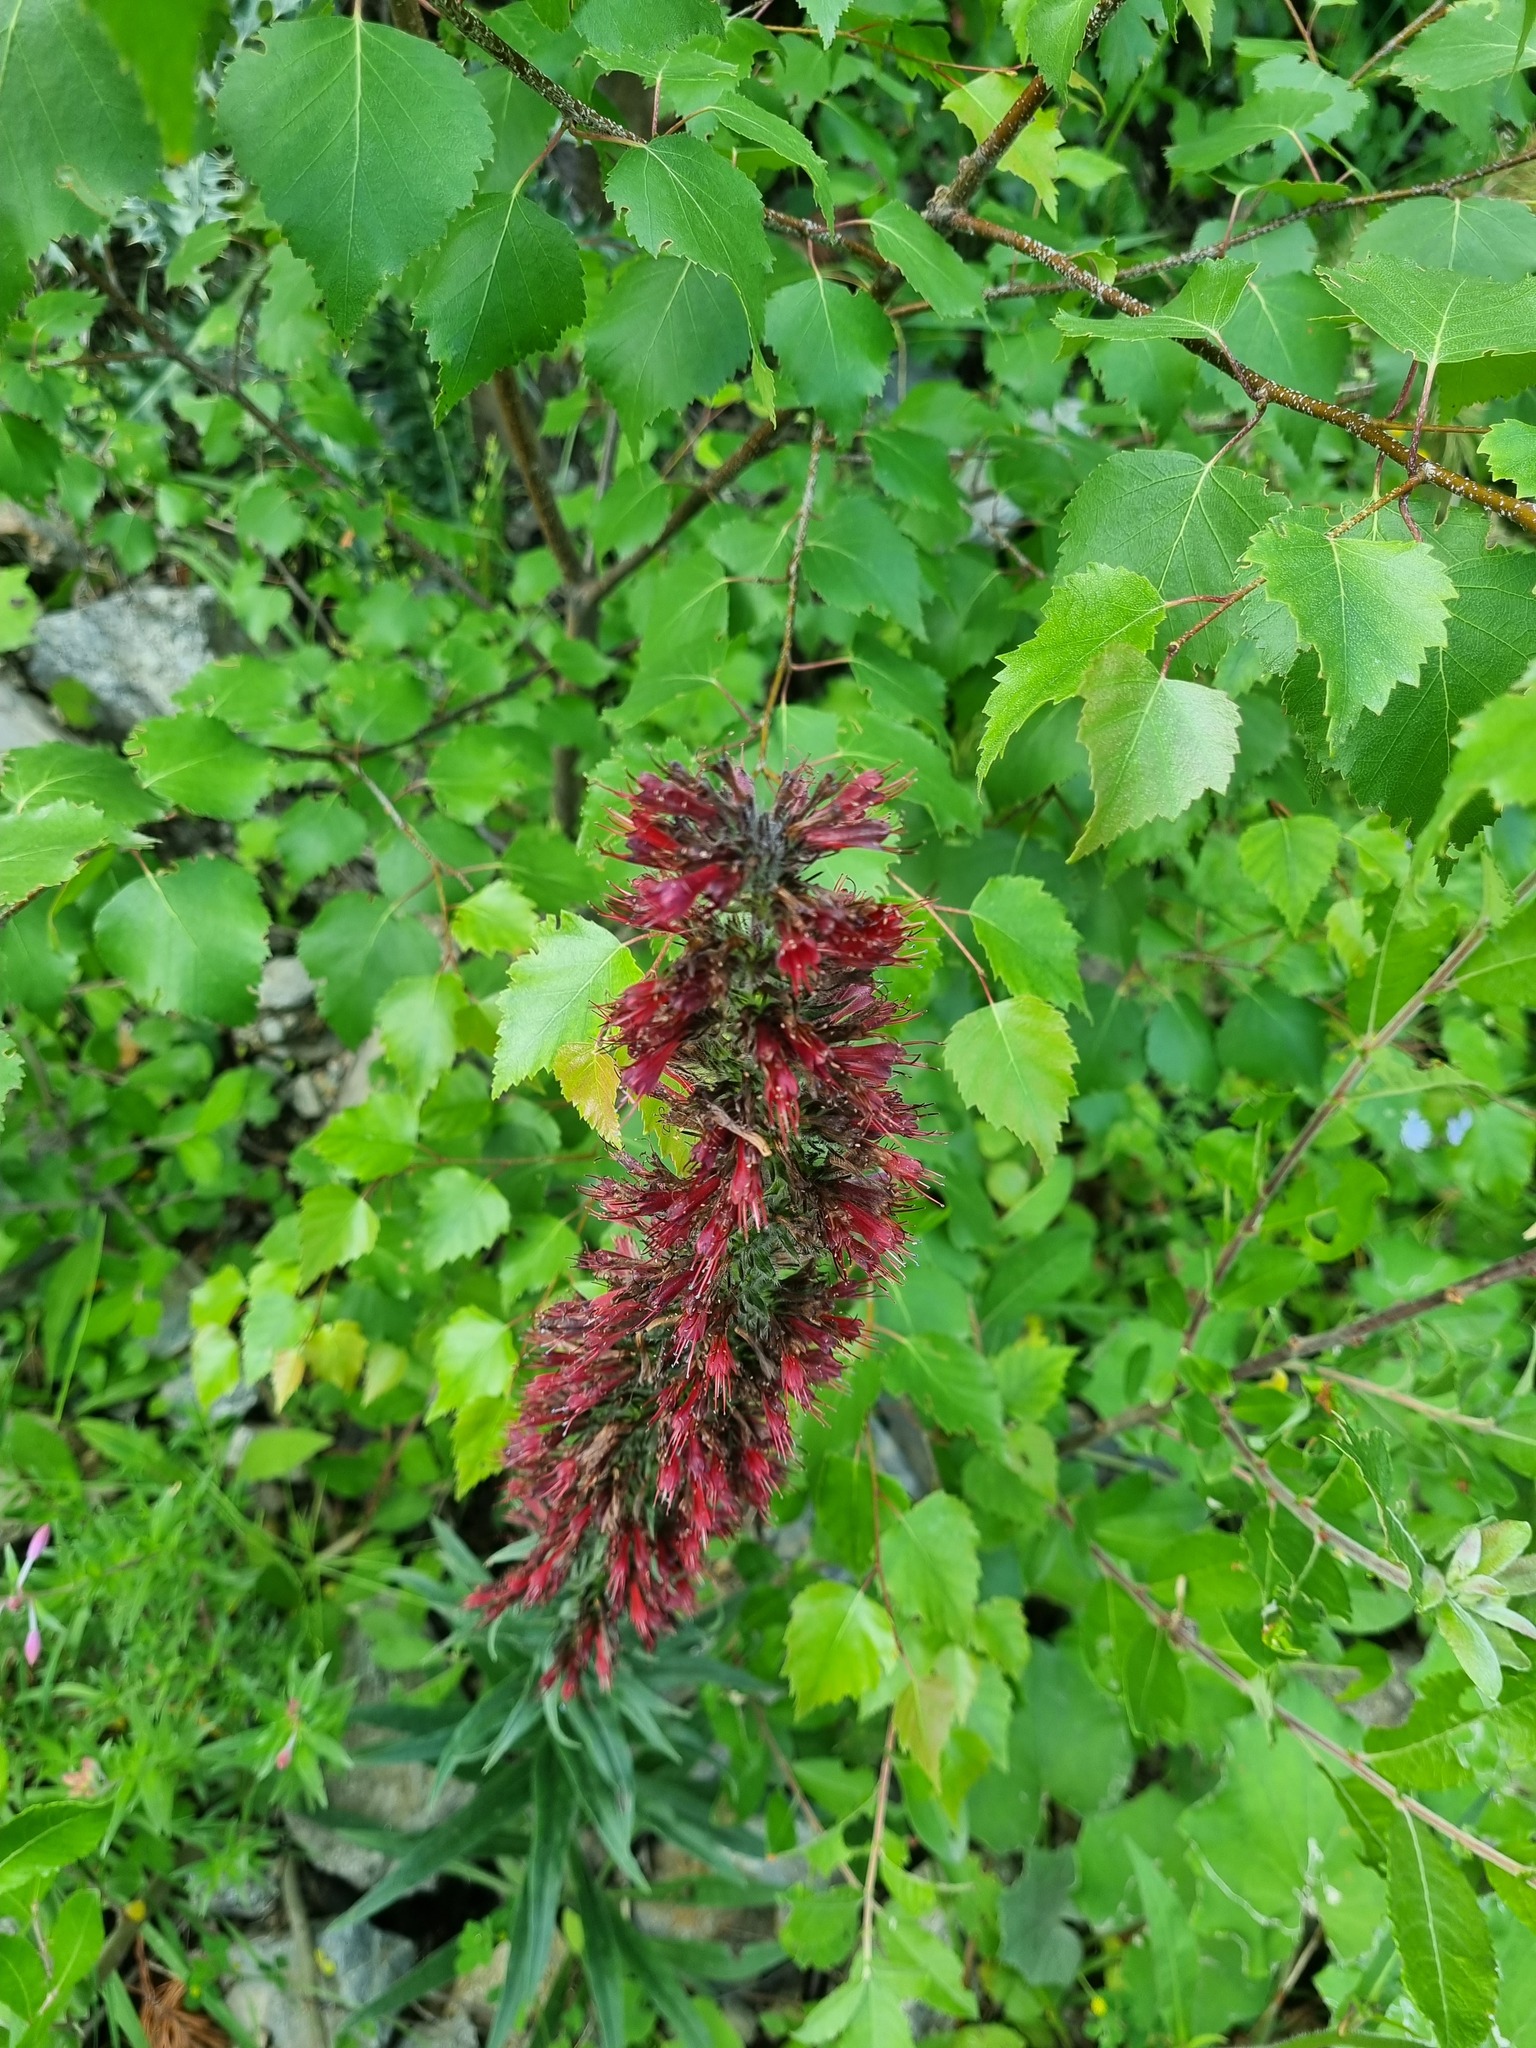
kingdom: Plantae
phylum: Tracheophyta
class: Magnoliopsida
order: Boraginales
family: Boraginaceae
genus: Pontechium
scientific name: Pontechium maculatum
